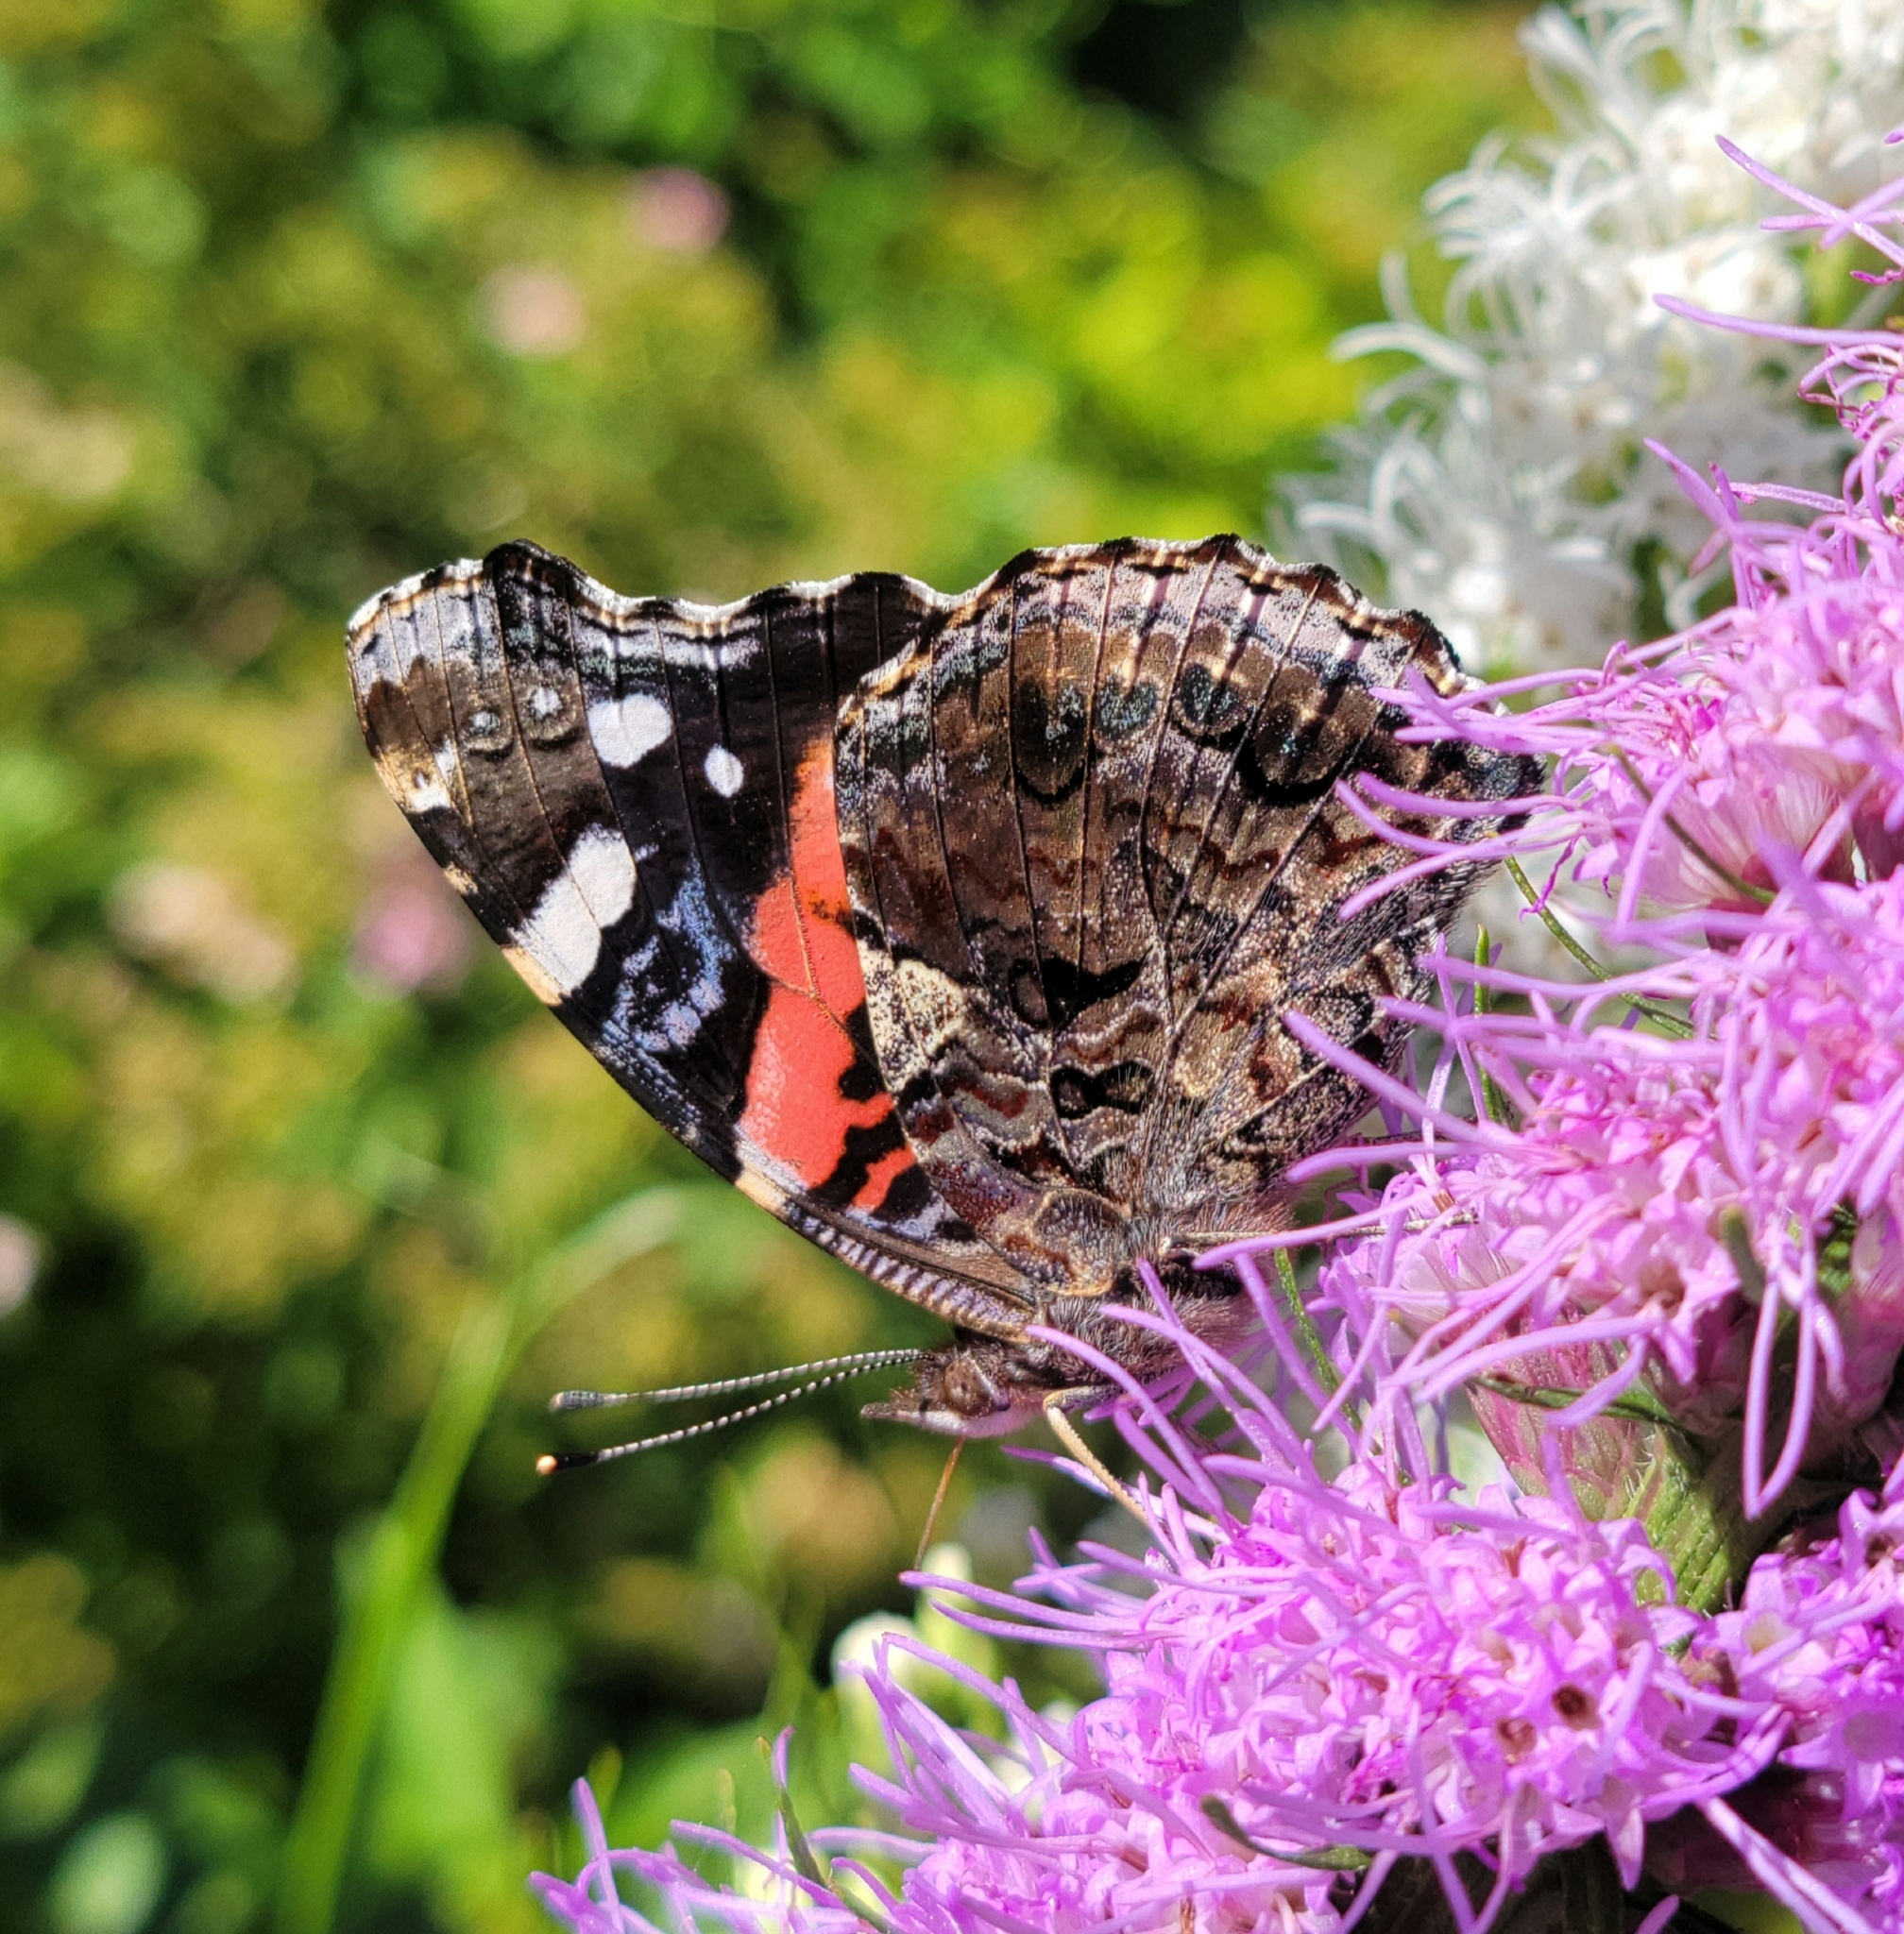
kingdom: Animalia
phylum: Arthropoda
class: Insecta
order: Lepidoptera
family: Nymphalidae
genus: Vanessa
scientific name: Vanessa atalanta
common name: Red admiral
